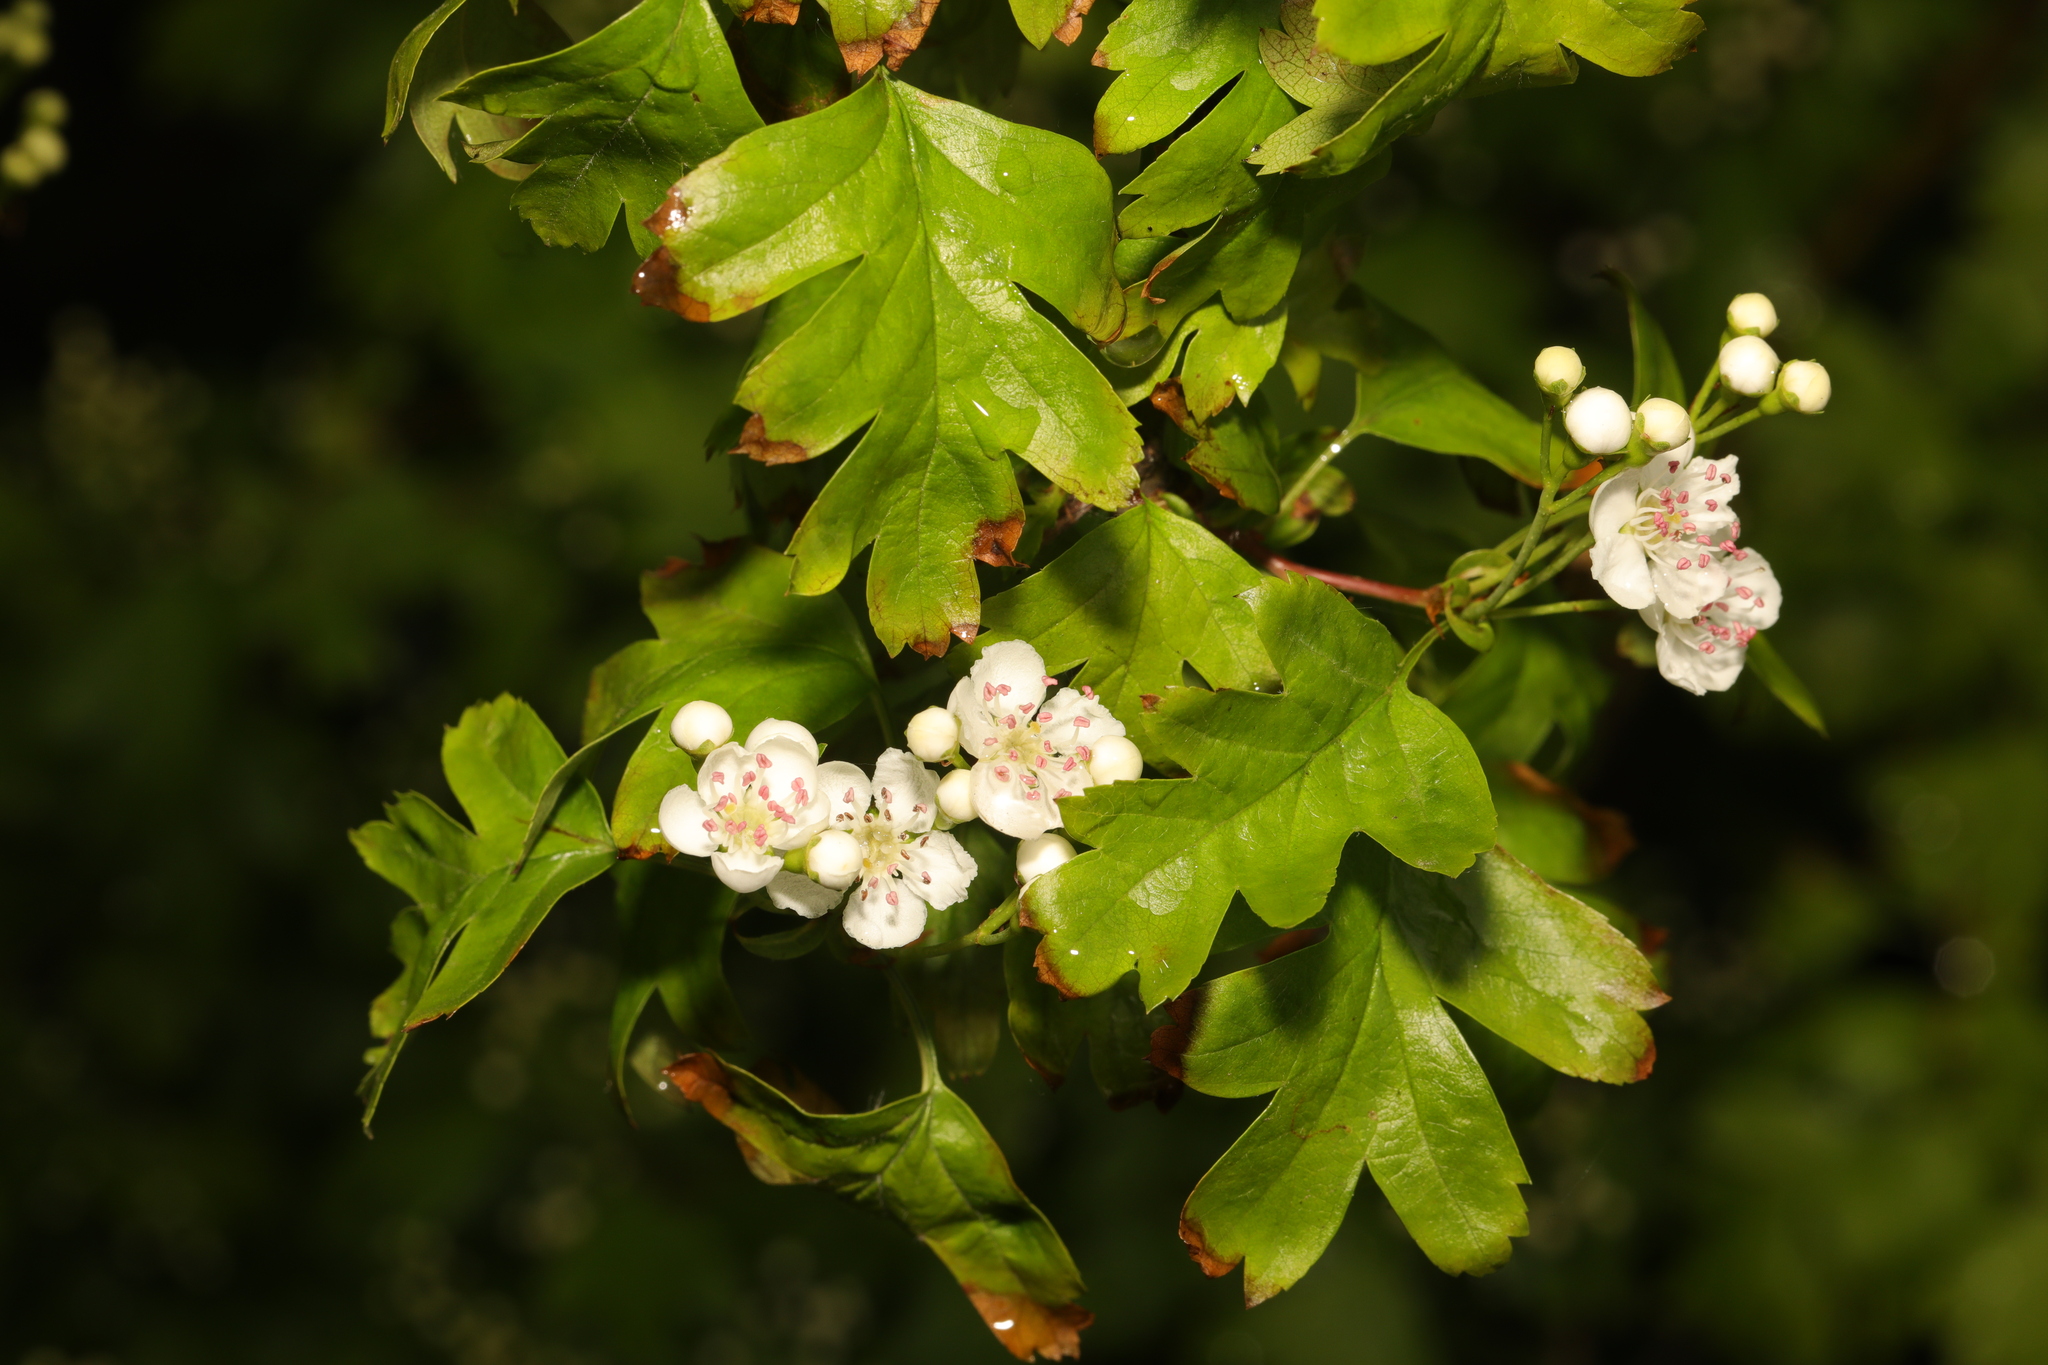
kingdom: Plantae
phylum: Tracheophyta
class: Magnoliopsida
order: Rosales
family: Rosaceae
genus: Crataegus
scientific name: Crataegus monogyna
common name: Hawthorn
